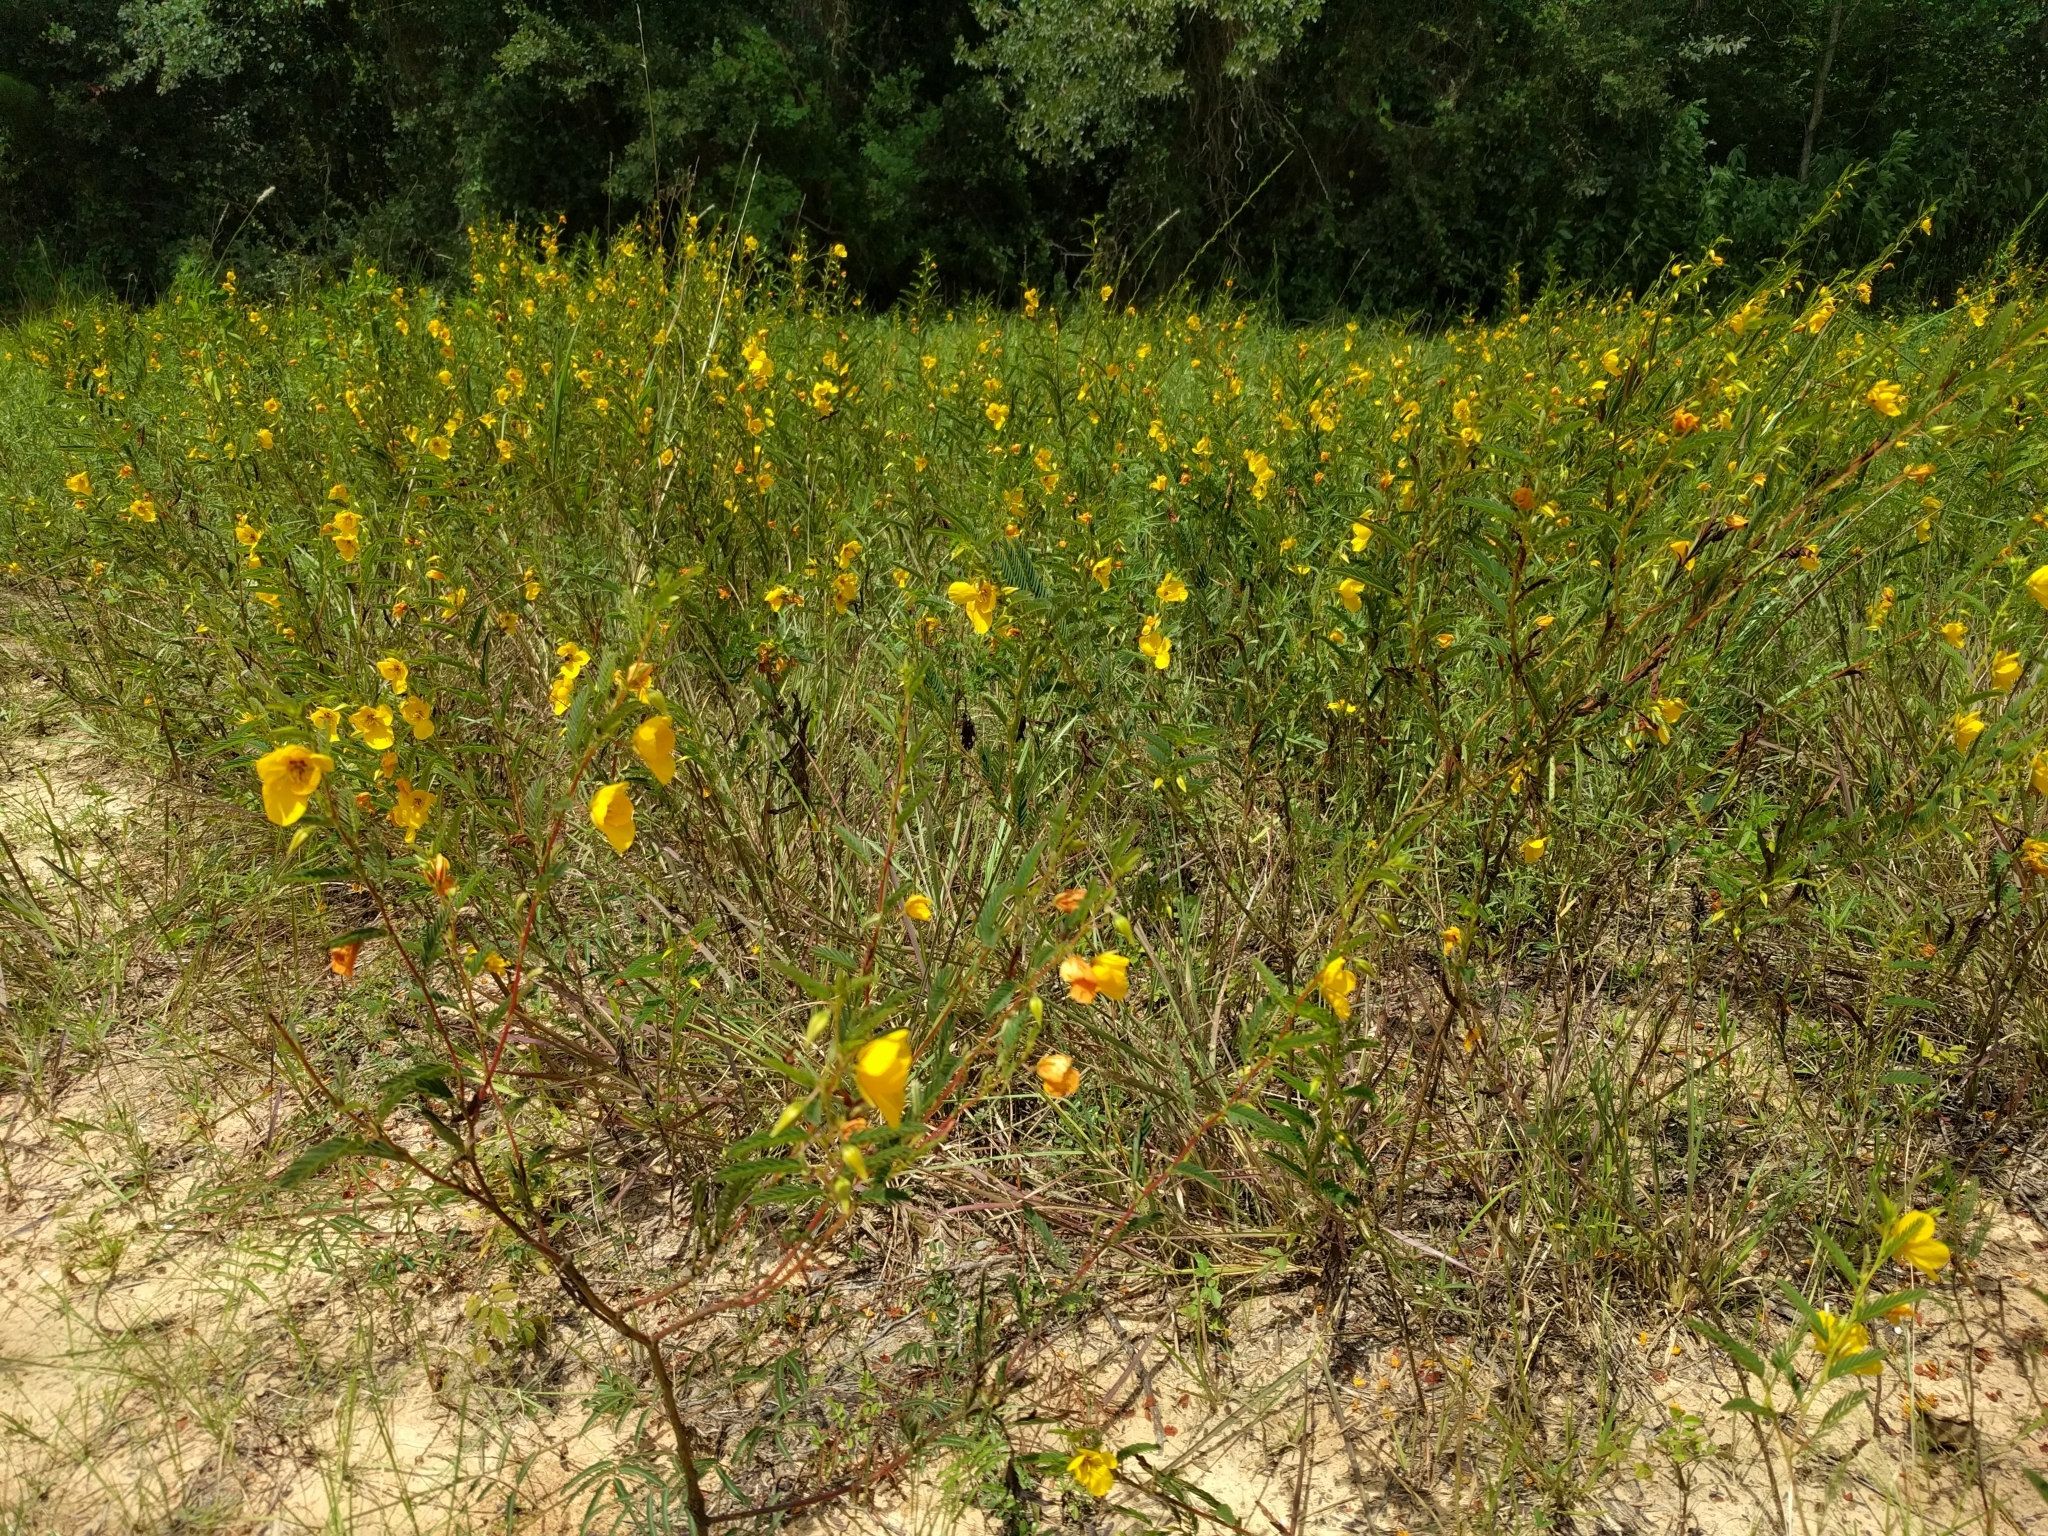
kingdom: Plantae
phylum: Tracheophyta
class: Magnoliopsida
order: Fabales
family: Fabaceae
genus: Chamaecrista
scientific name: Chamaecrista fasciculata
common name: Golden cassia
